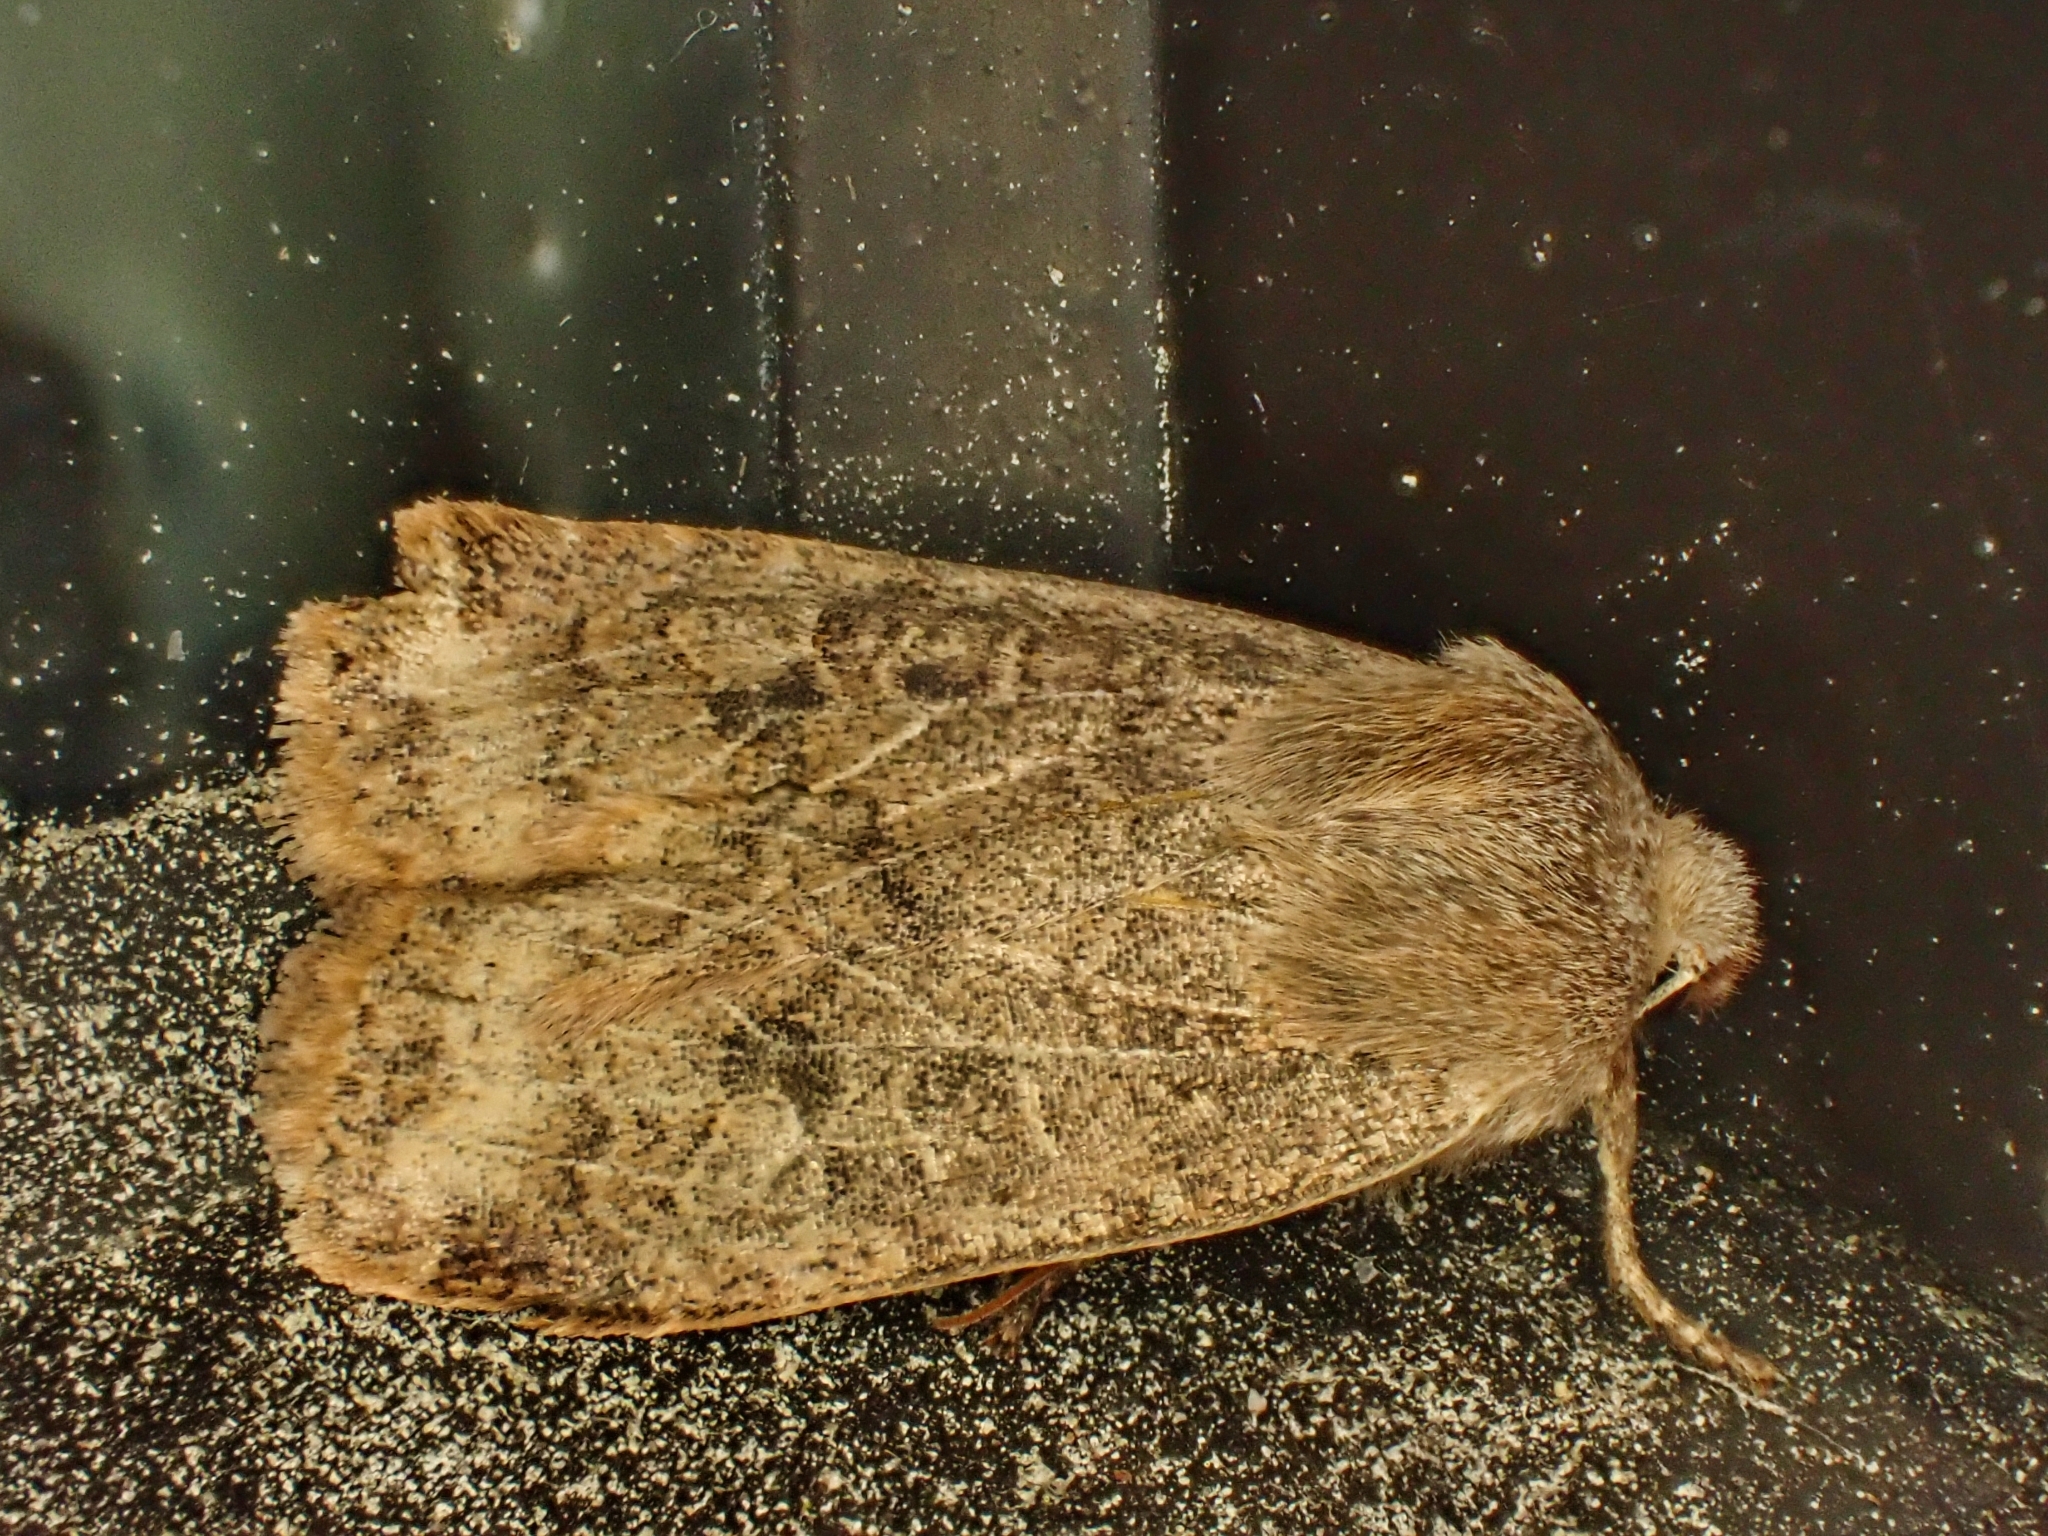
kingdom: Animalia
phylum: Arthropoda
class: Insecta
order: Lepidoptera
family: Noctuidae
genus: Conistra
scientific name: Conistra vaccinii
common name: Chestnut
